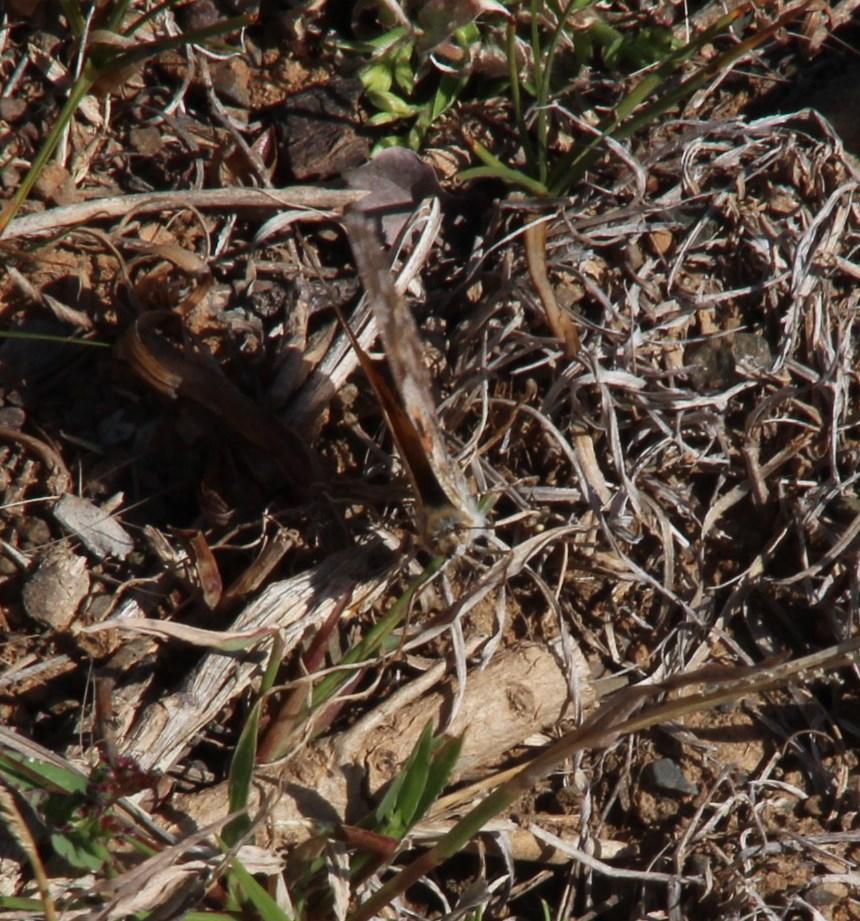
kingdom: Animalia
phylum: Arthropoda
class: Insecta
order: Lepidoptera
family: Nymphalidae
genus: Vanessa
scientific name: Vanessa cardui
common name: Painted lady
